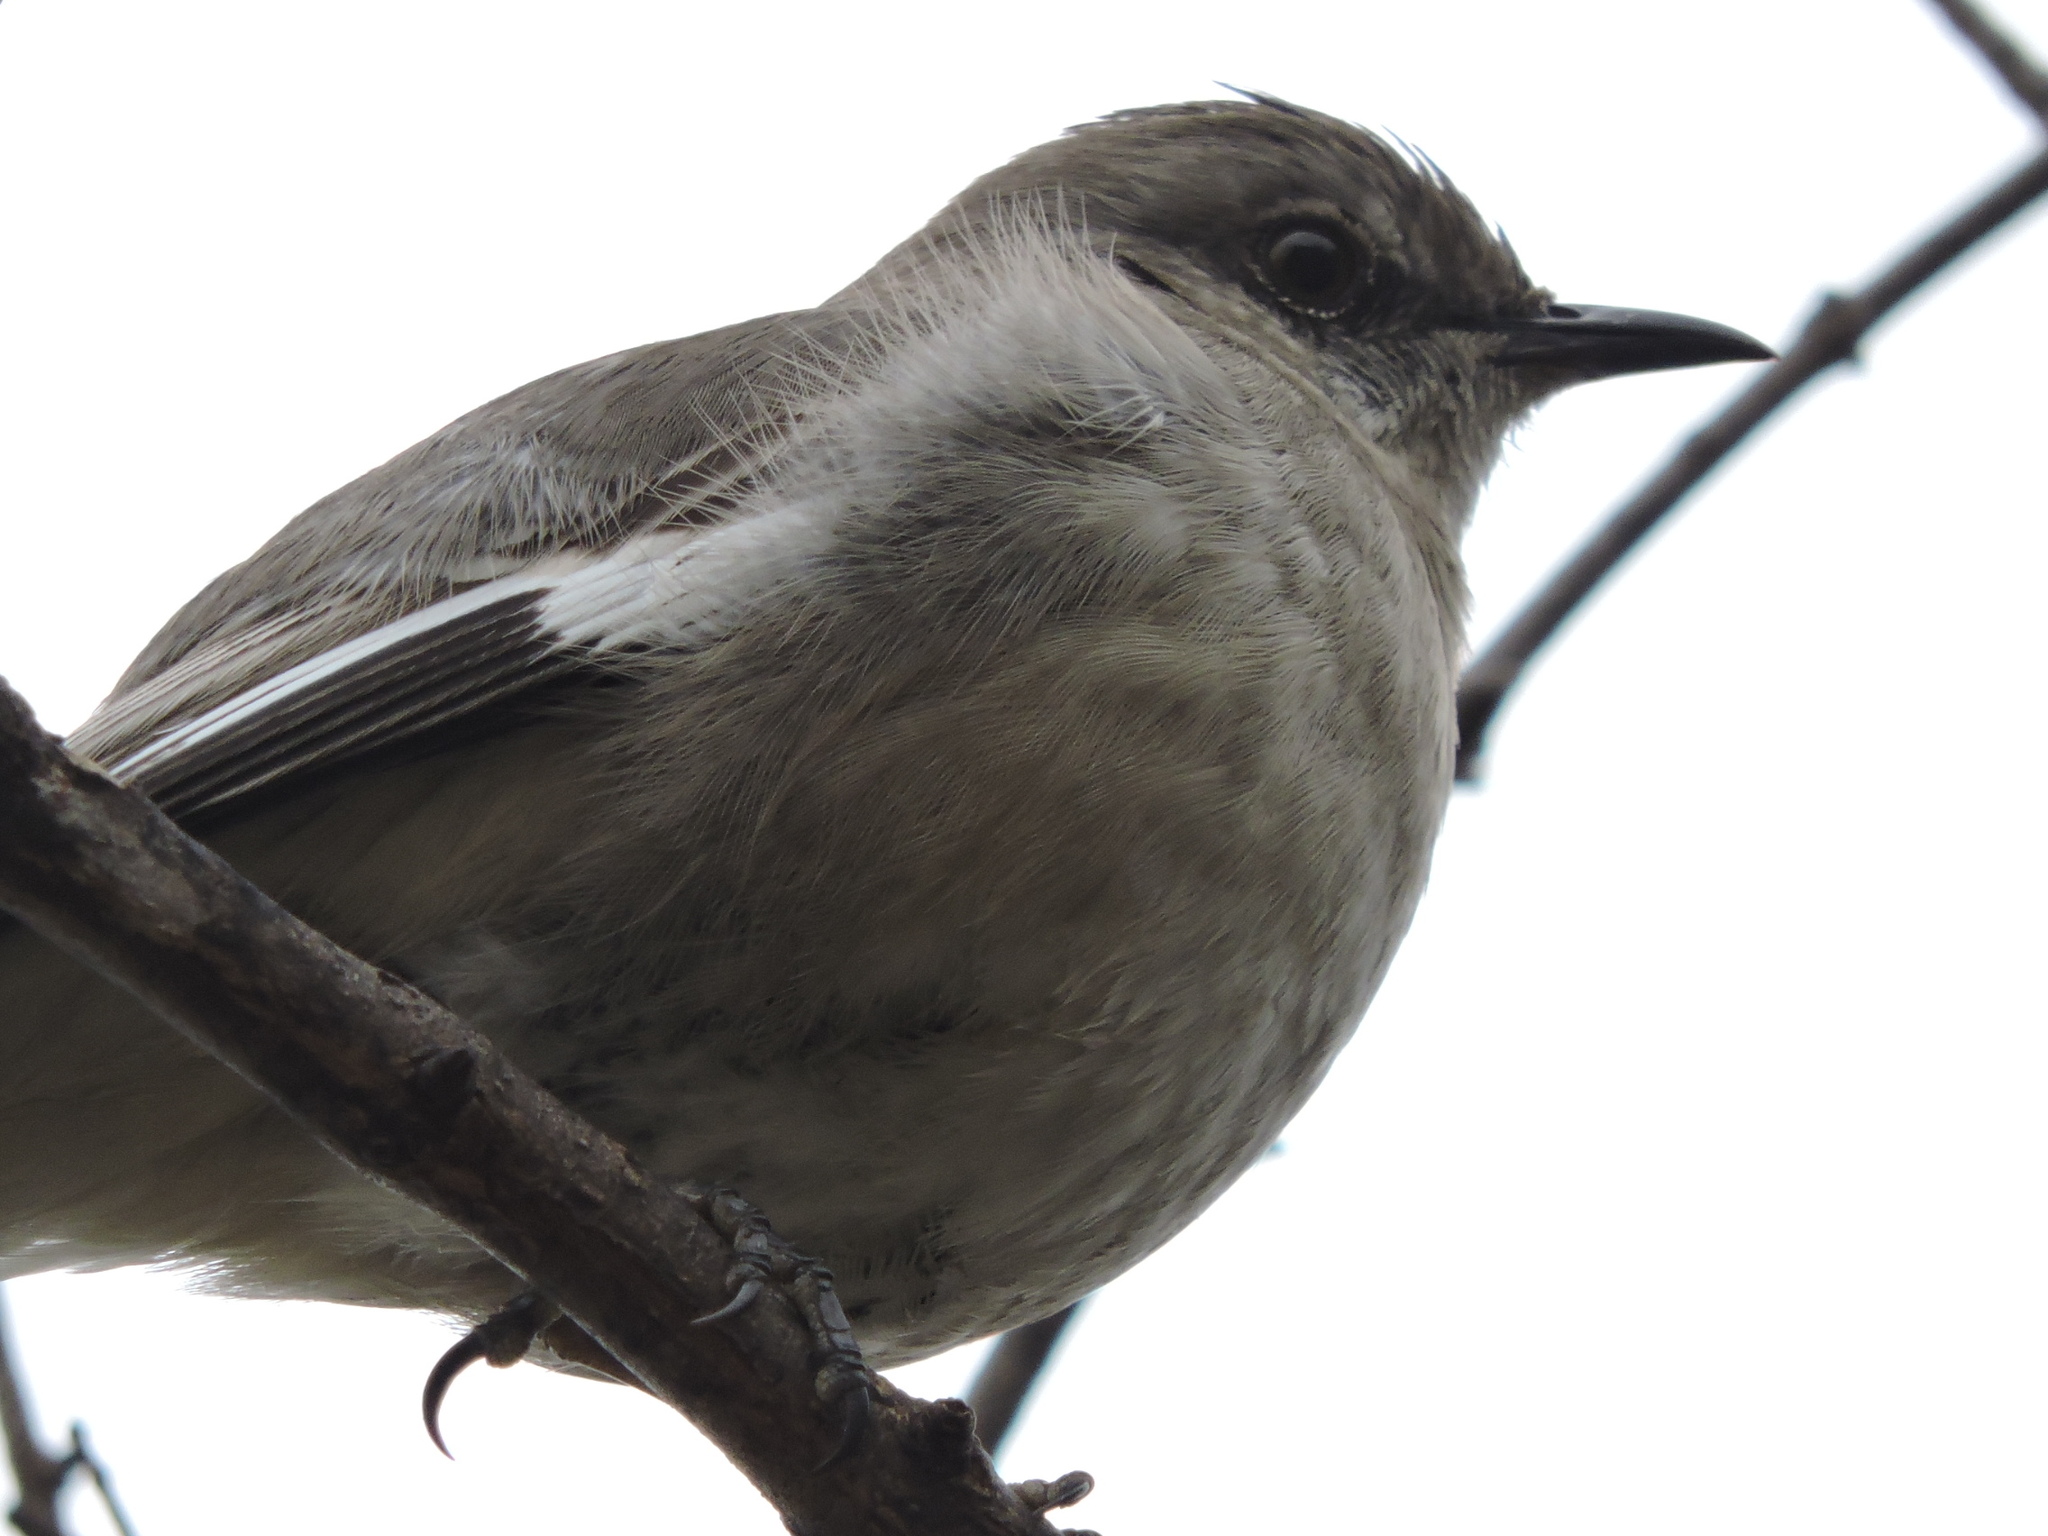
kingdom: Animalia
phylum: Chordata
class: Aves
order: Passeriformes
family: Mimidae
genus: Mimus
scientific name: Mimus polyglottos
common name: Northern mockingbird
